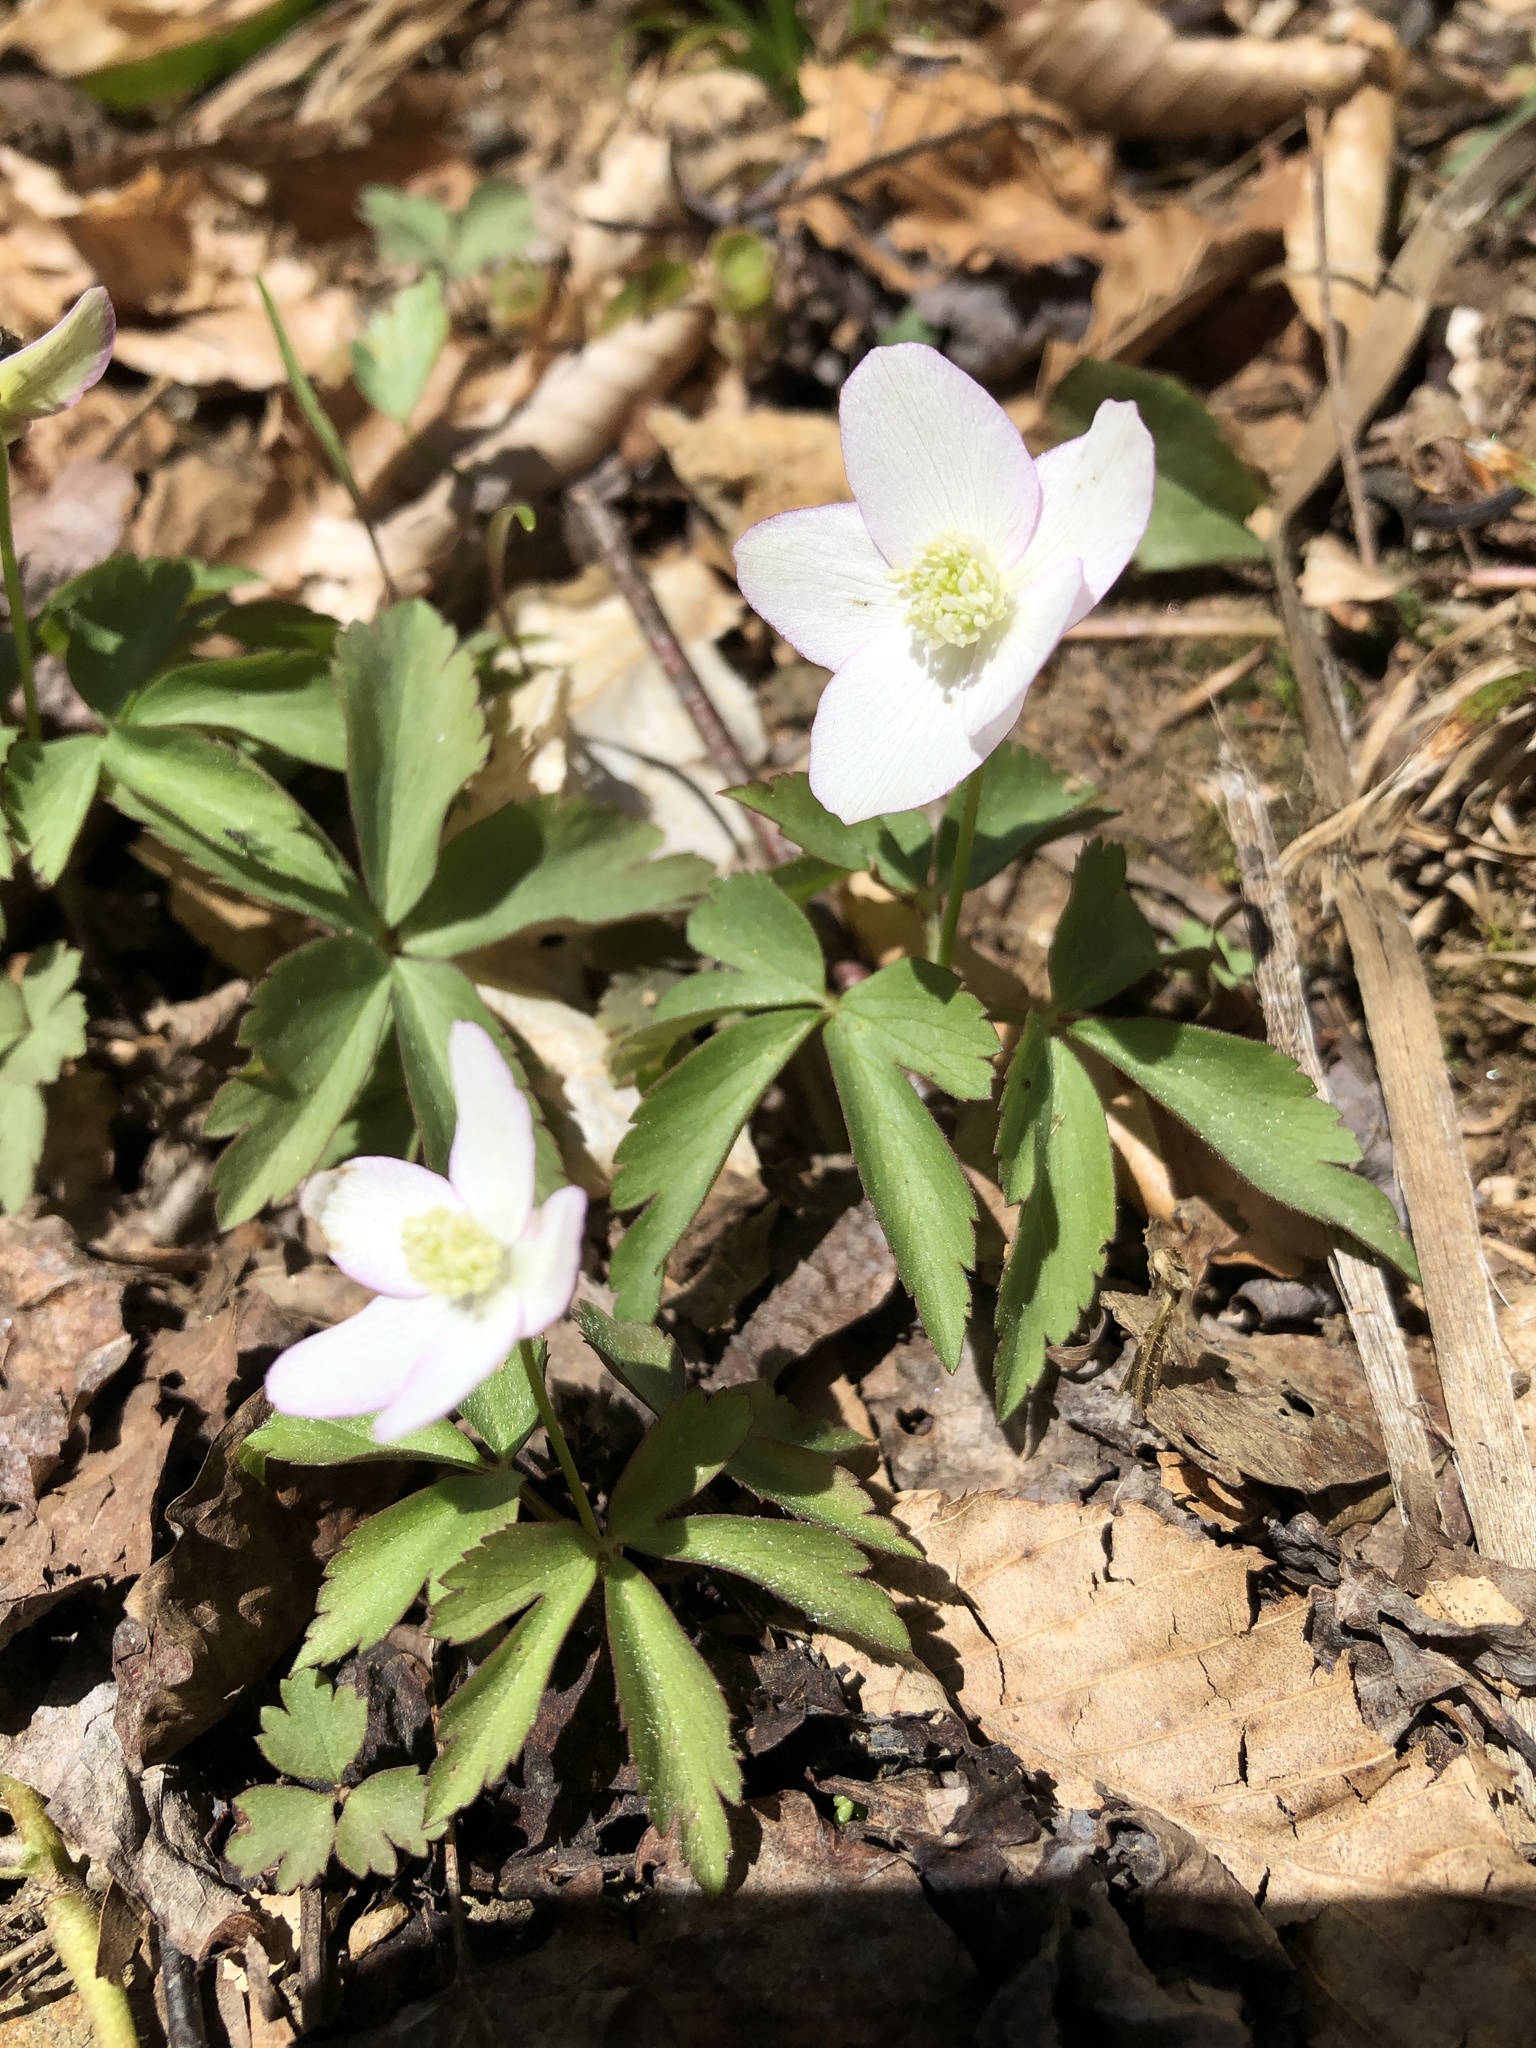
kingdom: Plantae
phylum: Tracheophyta
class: Magnoliopsida
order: Ranunculales
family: Ranunculaceae
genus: Anemone
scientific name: Anemone quinquefolia
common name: Wood anemone
